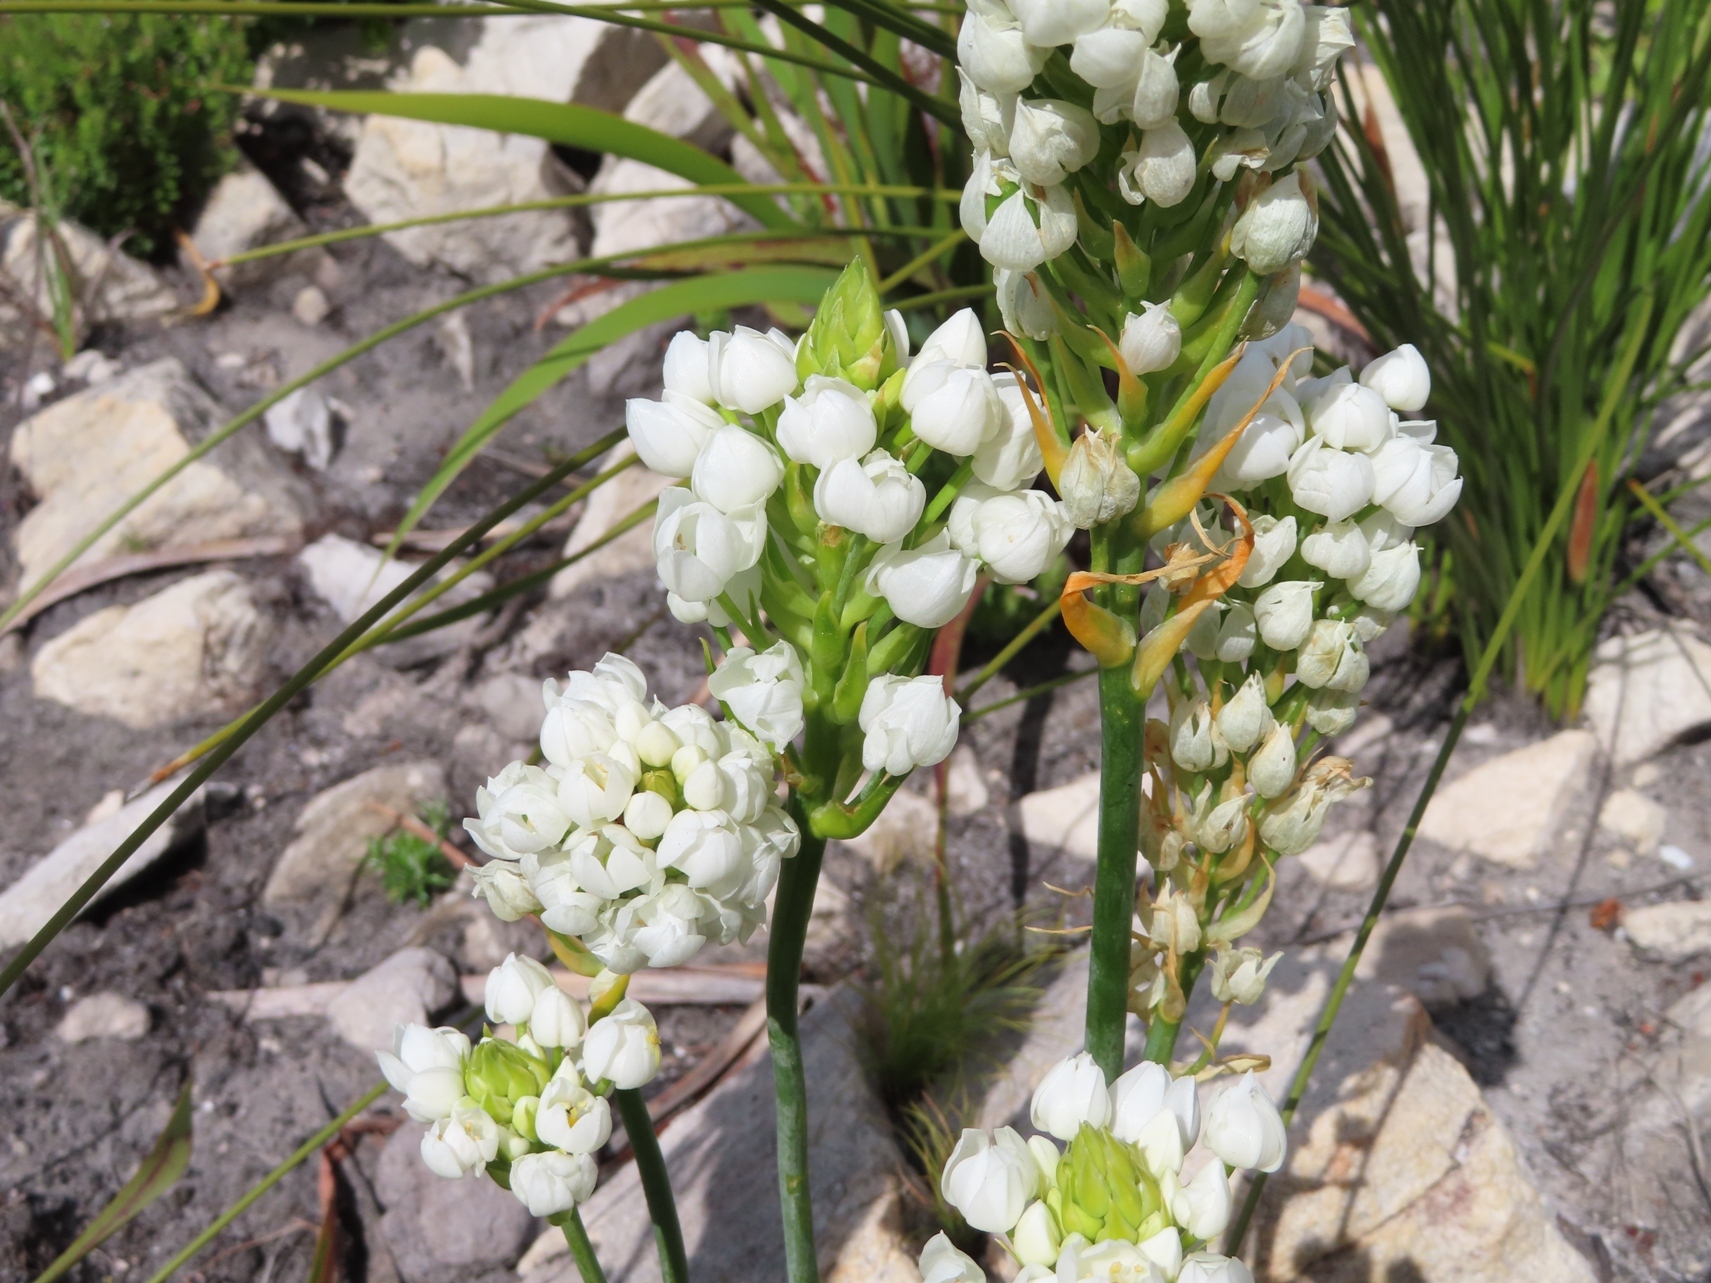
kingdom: Plantae
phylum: Tracheophyta
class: Liliopsida
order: Asparagales
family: Asparagaceae
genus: Ornithogalum
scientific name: Ornithogalum thyrsoides
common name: Chincherinchee
